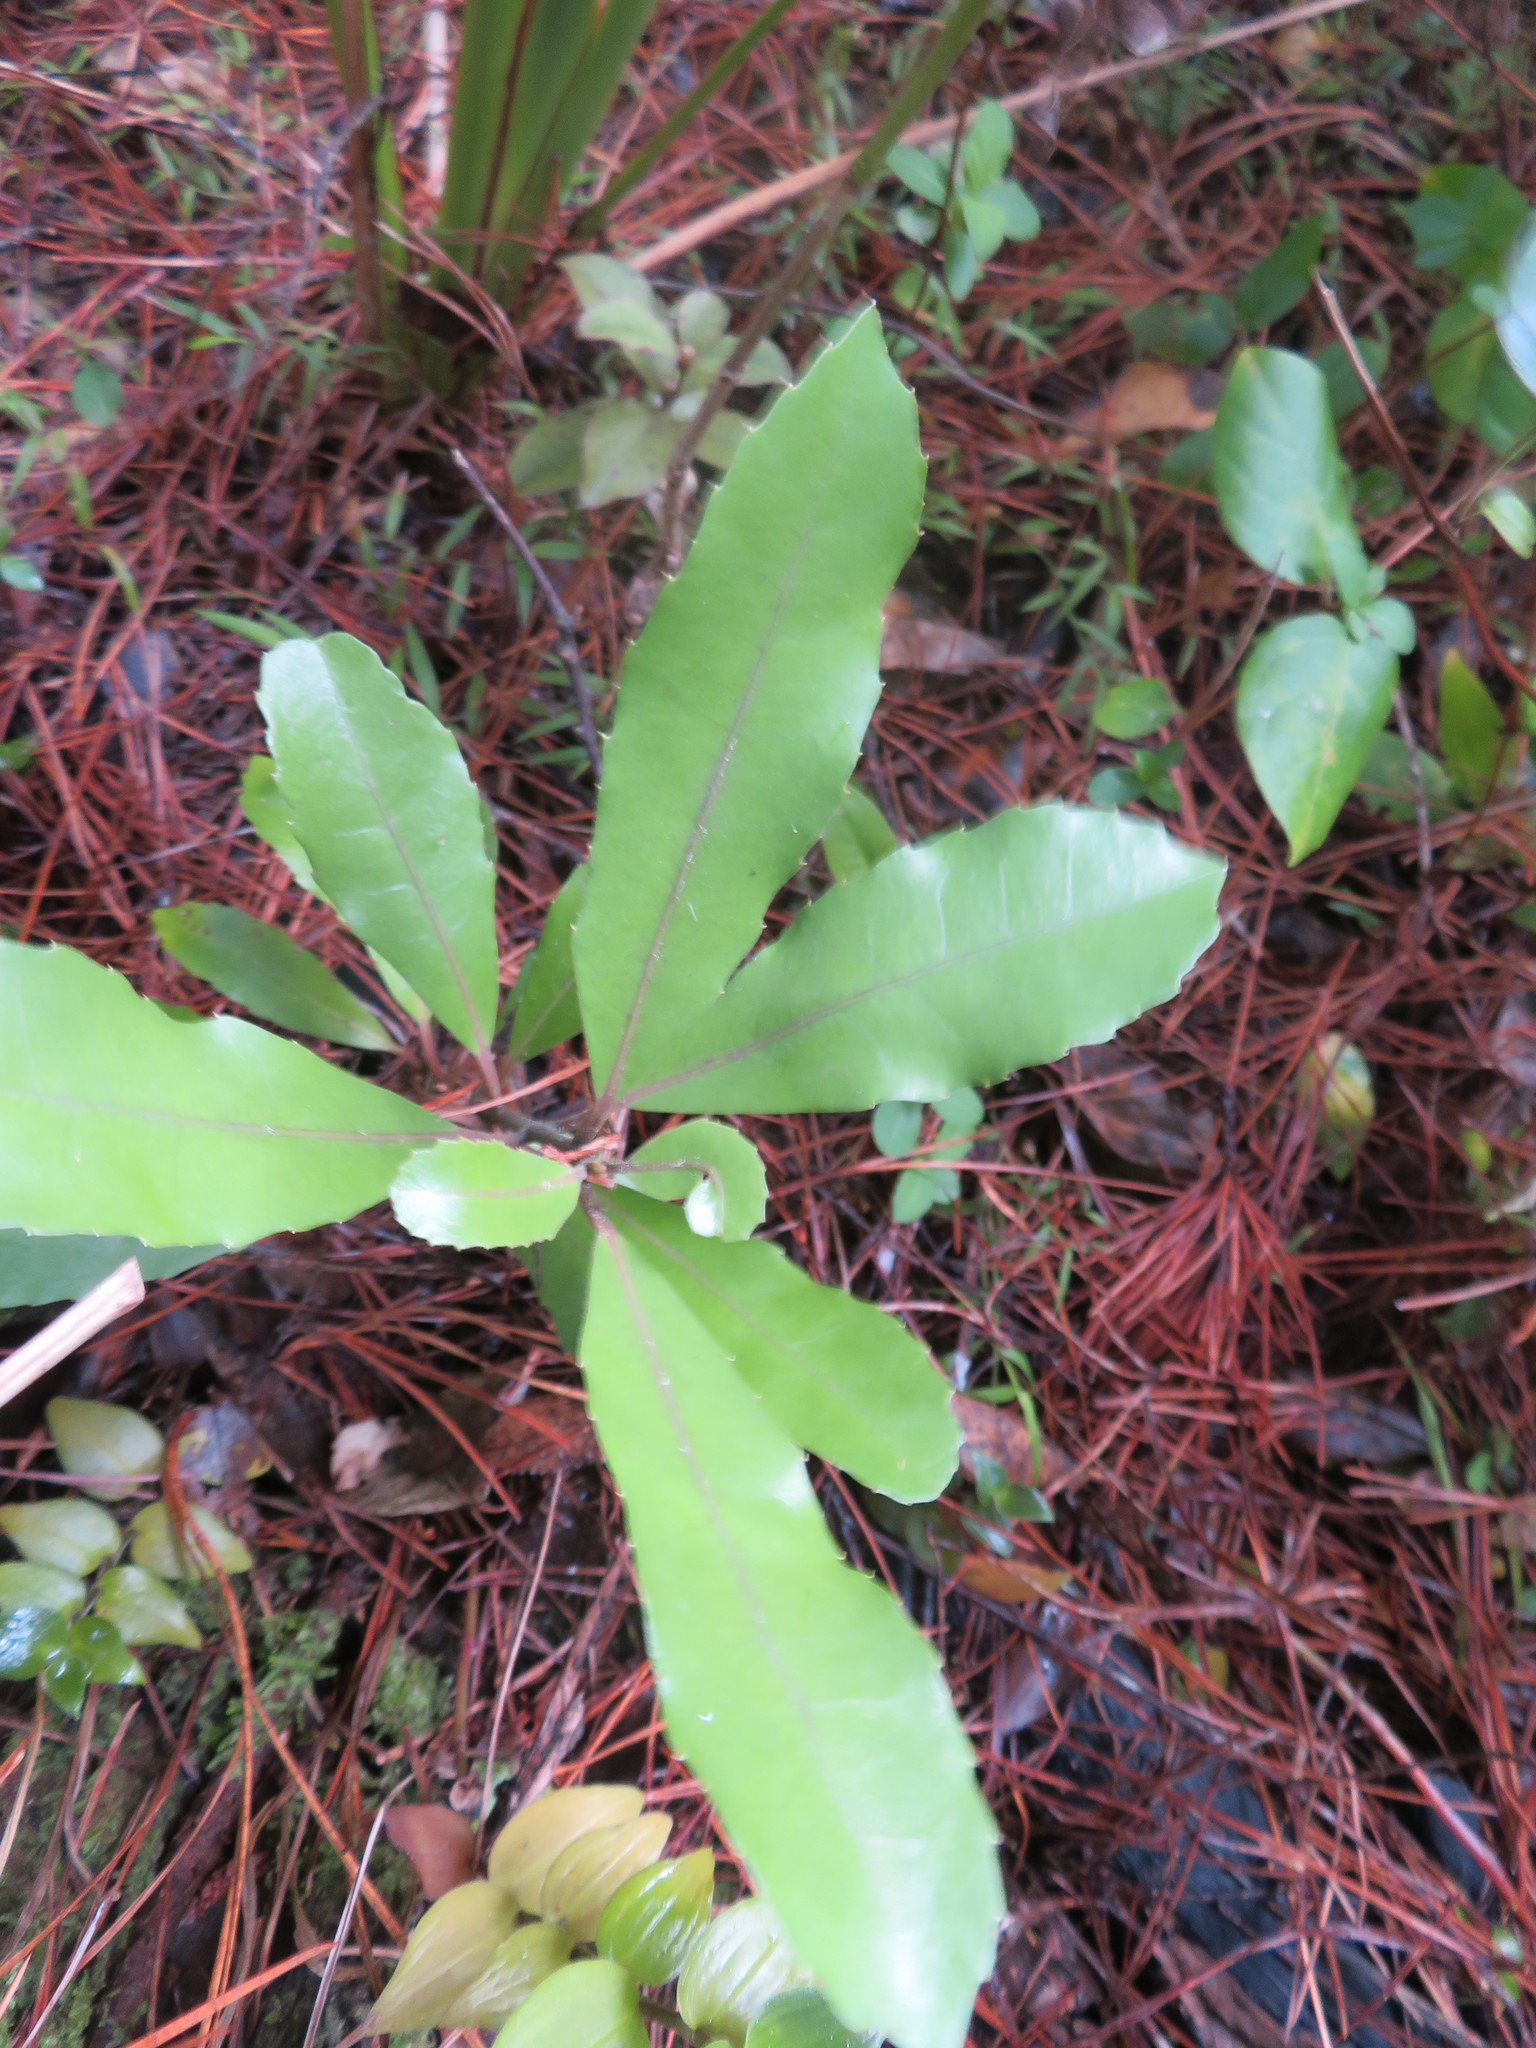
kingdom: Plantae
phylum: Tracheophyta
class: Magnoliopsida
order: Laurales
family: Monimiaceae
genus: Hedycarya
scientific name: Hedycarya arborea
